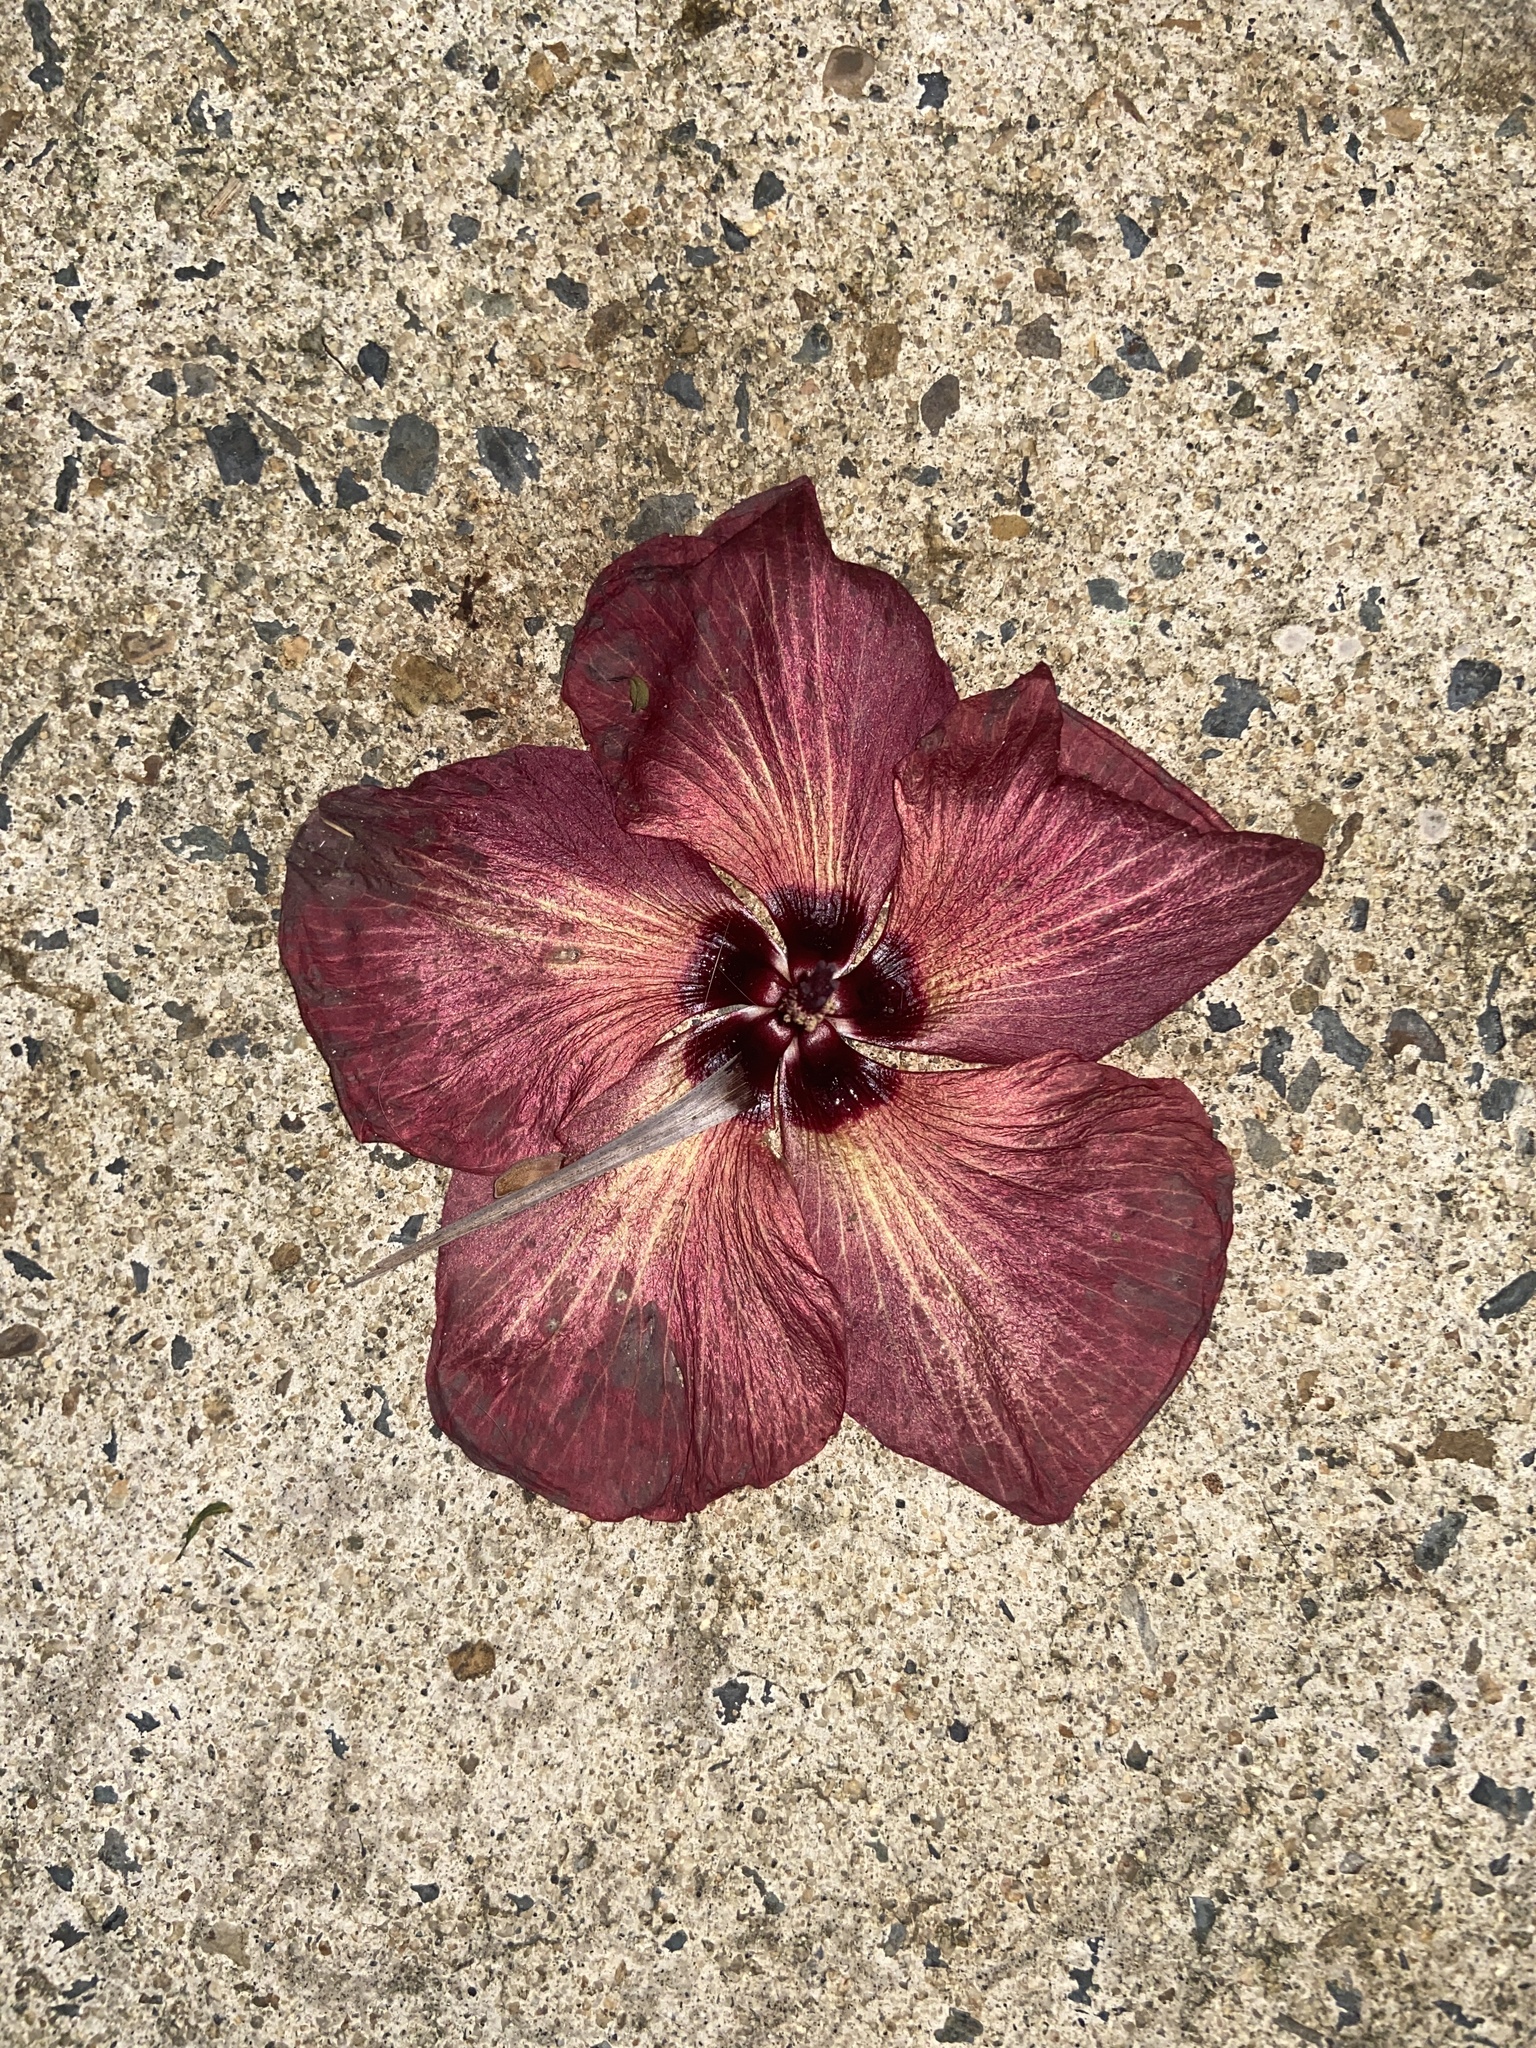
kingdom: Plantae
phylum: Tracheophyta
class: Magnoliopsida
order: Malvales
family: Malvaceae
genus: Talipariti
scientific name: Talipariti tiliaceum
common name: Sea hibiscus
